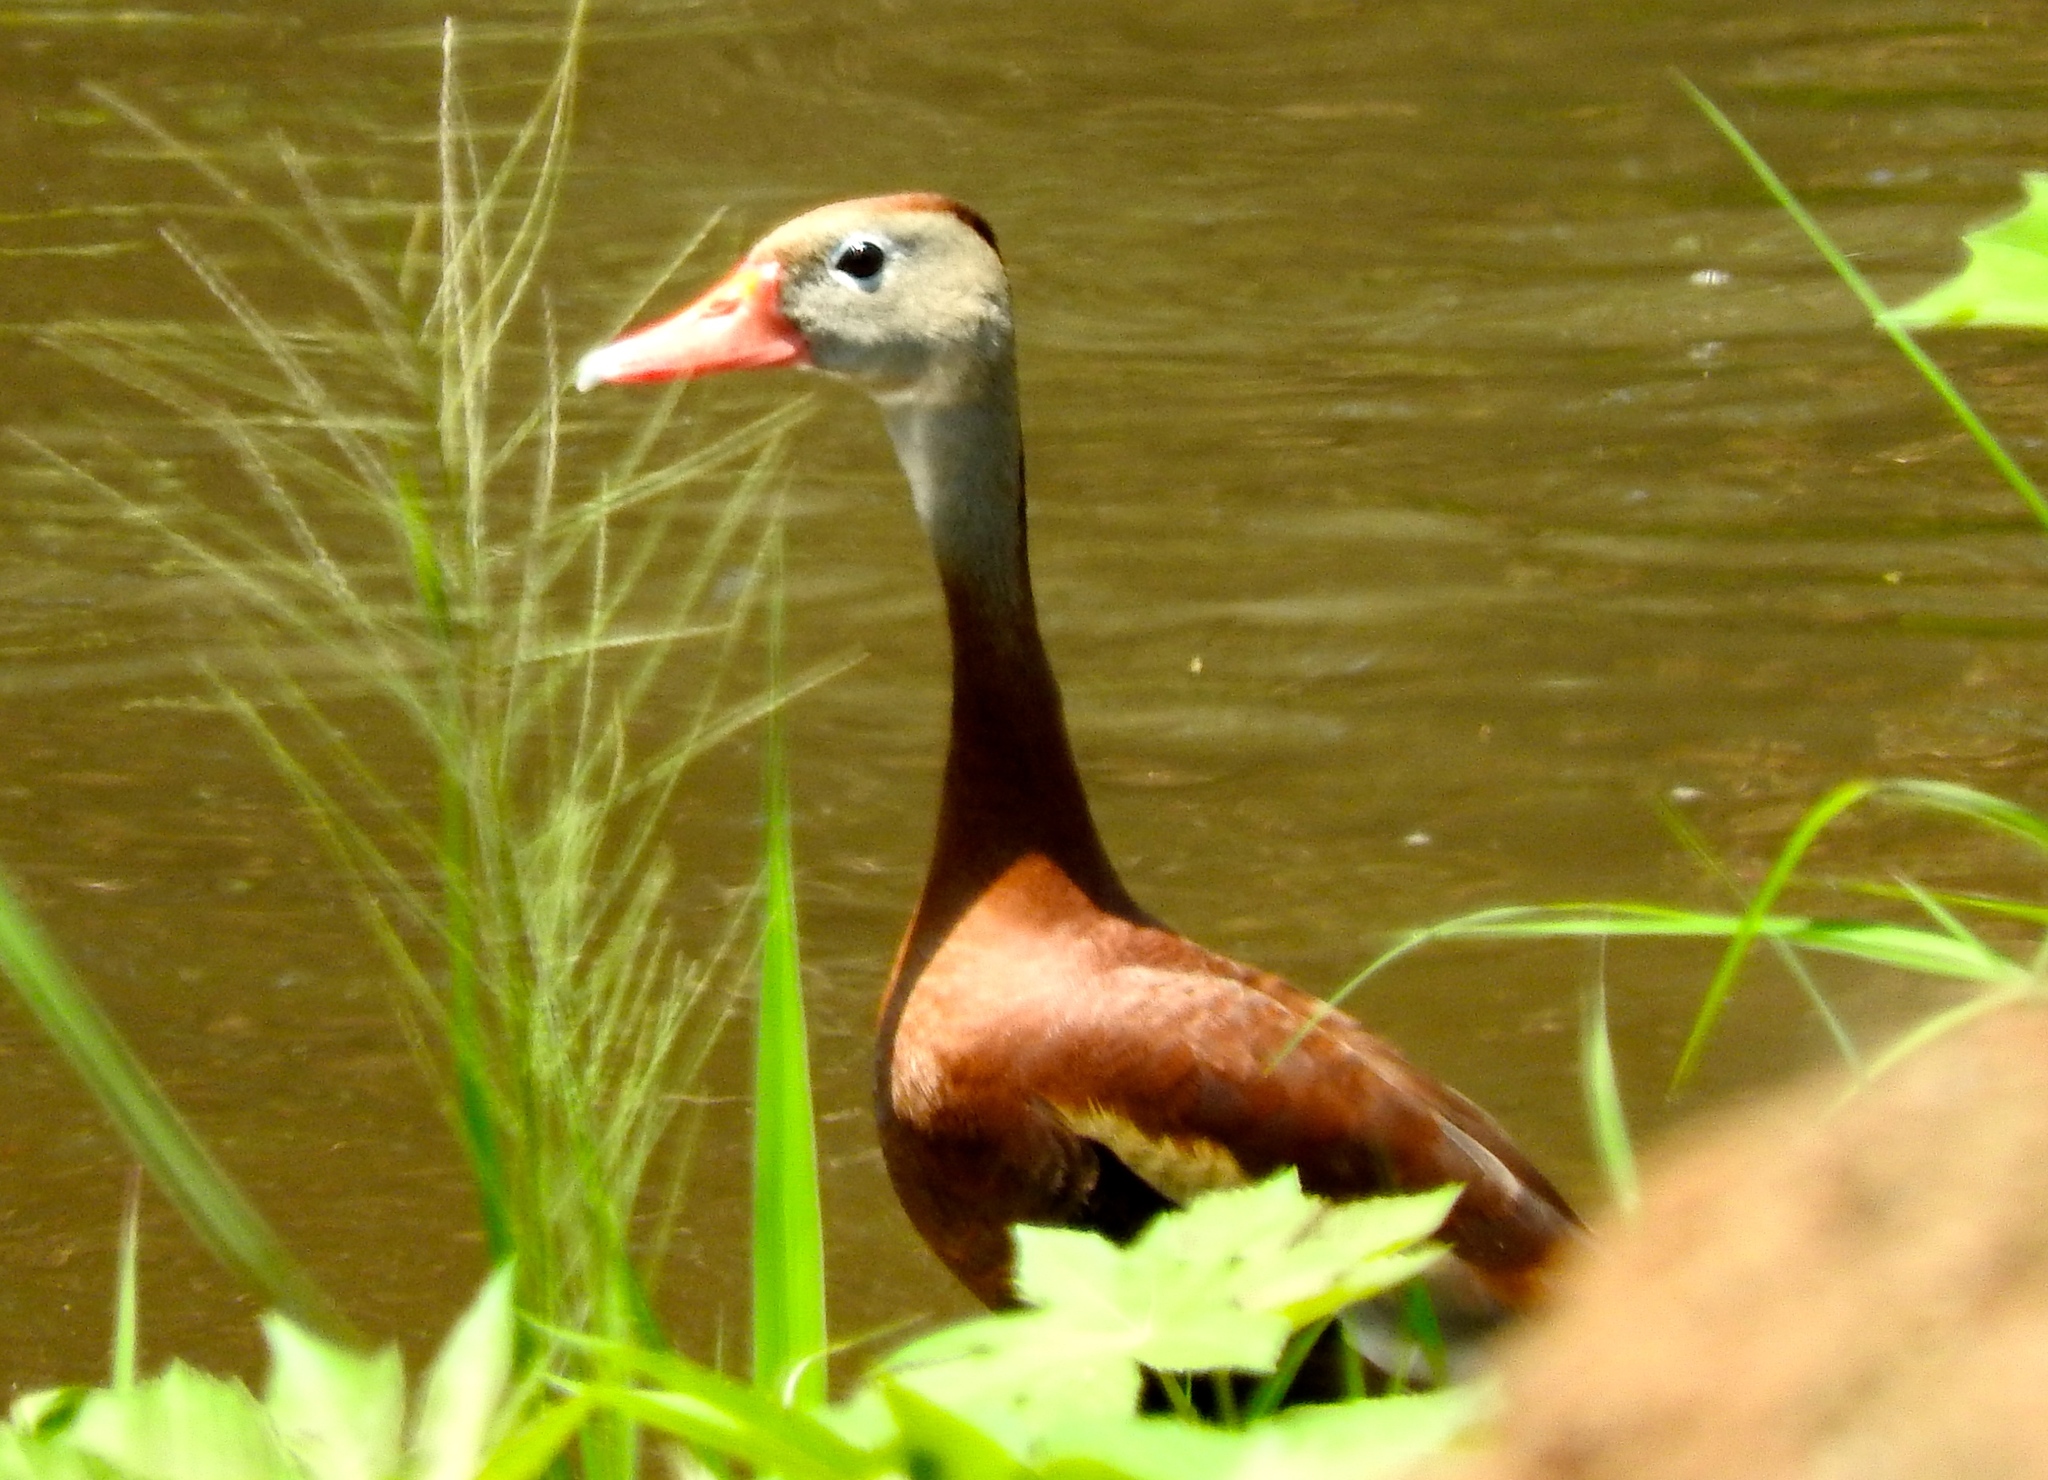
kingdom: Animalia
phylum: Chordata
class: Aves
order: Anseriformes
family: Anatidae
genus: Dendrocygna
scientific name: Dendrocygna autumnalis
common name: Black-bellied whistling duck
